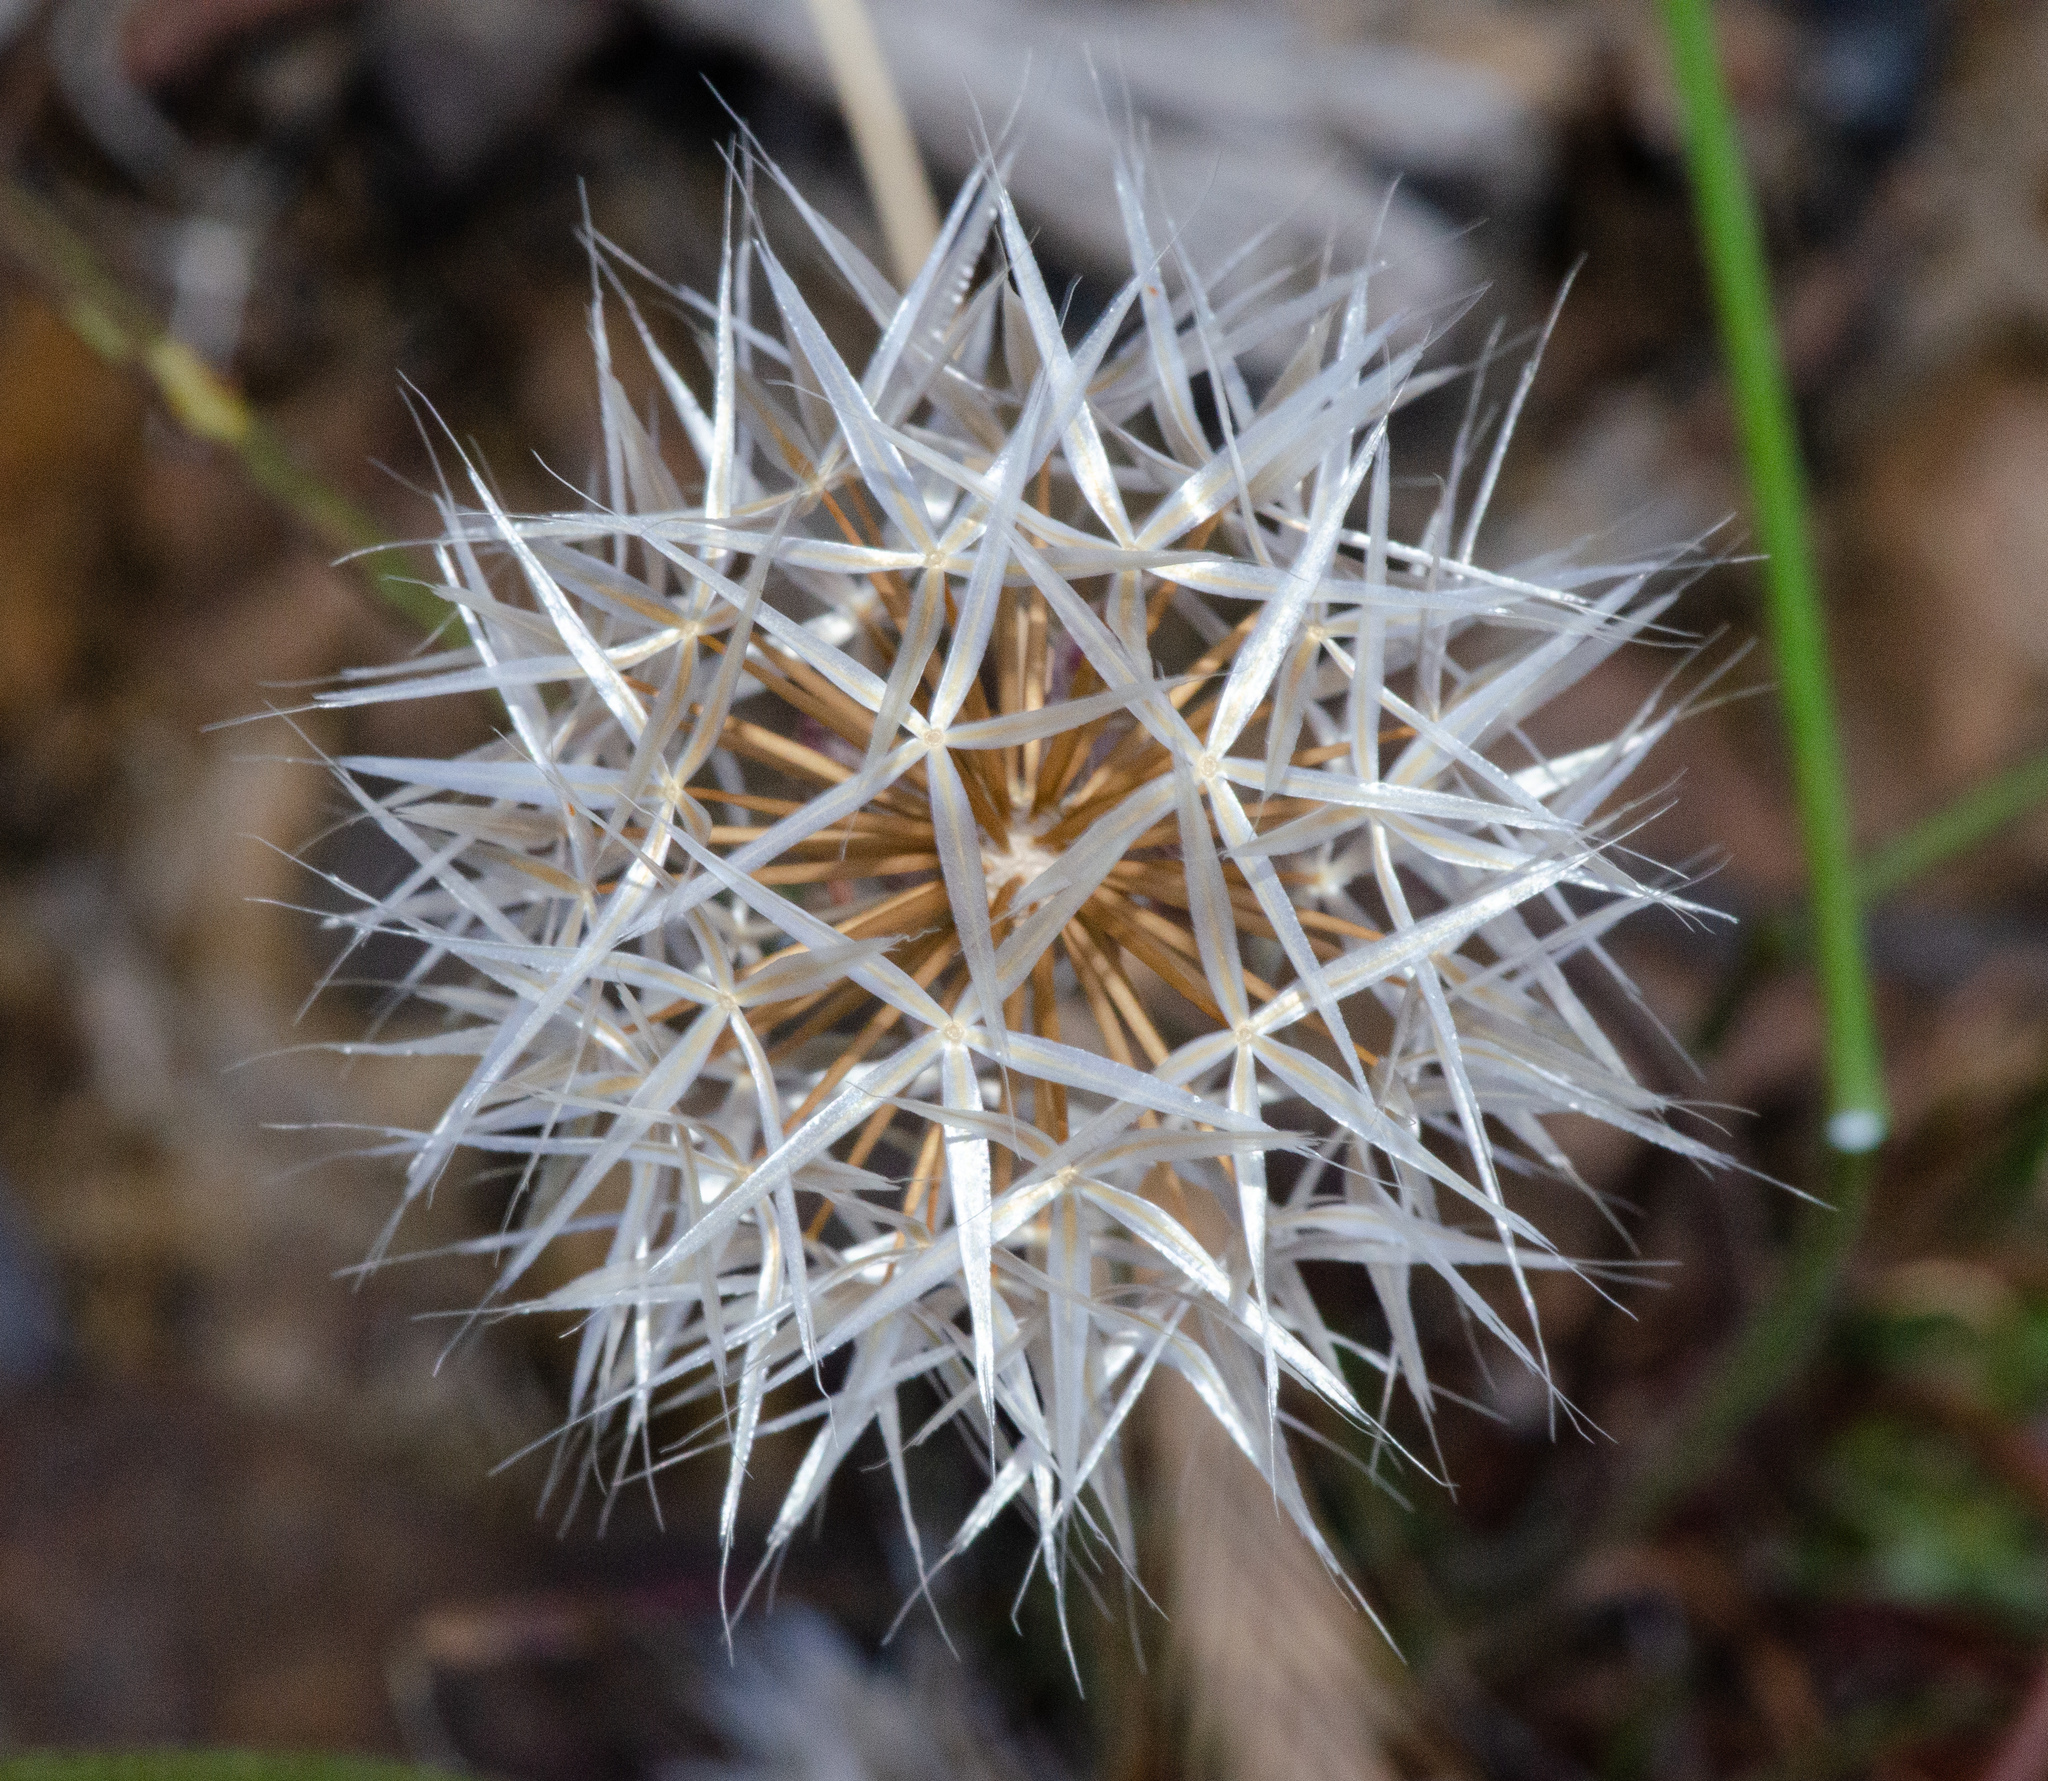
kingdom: Plantae
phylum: Tracheophyta
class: Magnoliopsida
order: Asterales
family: Asteraceae
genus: Microseris
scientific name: Microseris lindleyi
